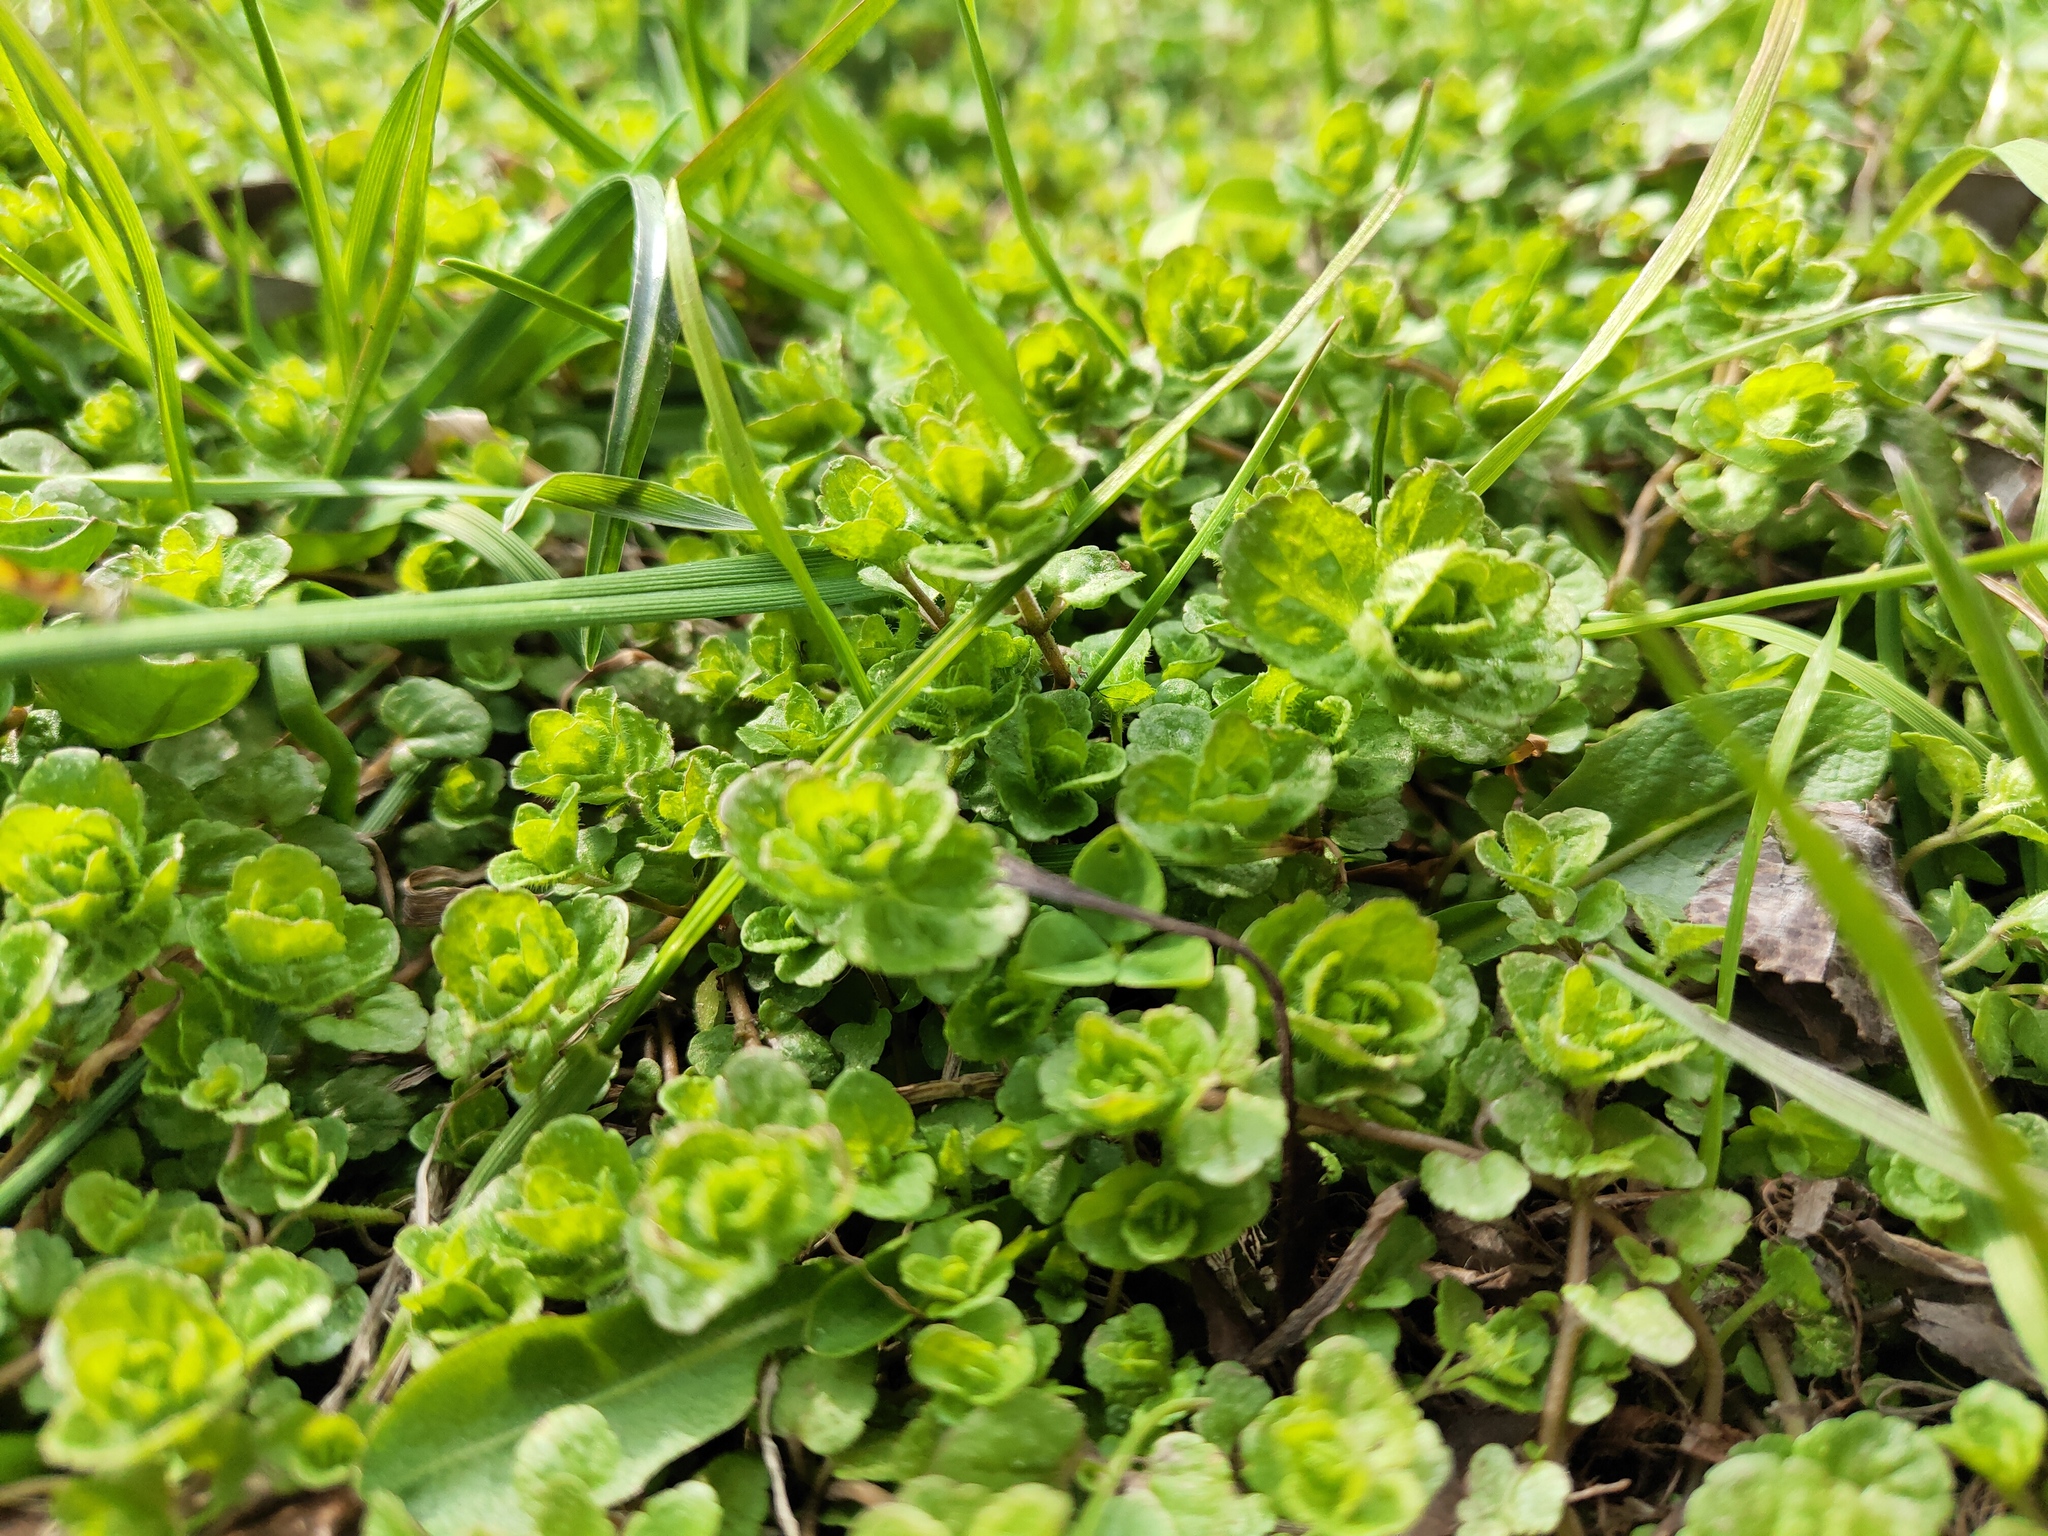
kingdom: Plantae
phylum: Tracheophyta
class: Magnoliopsida
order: Lamiales
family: Plantaginaceae
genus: Veronica
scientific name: Veronica filiformis
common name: Slender speedwell
